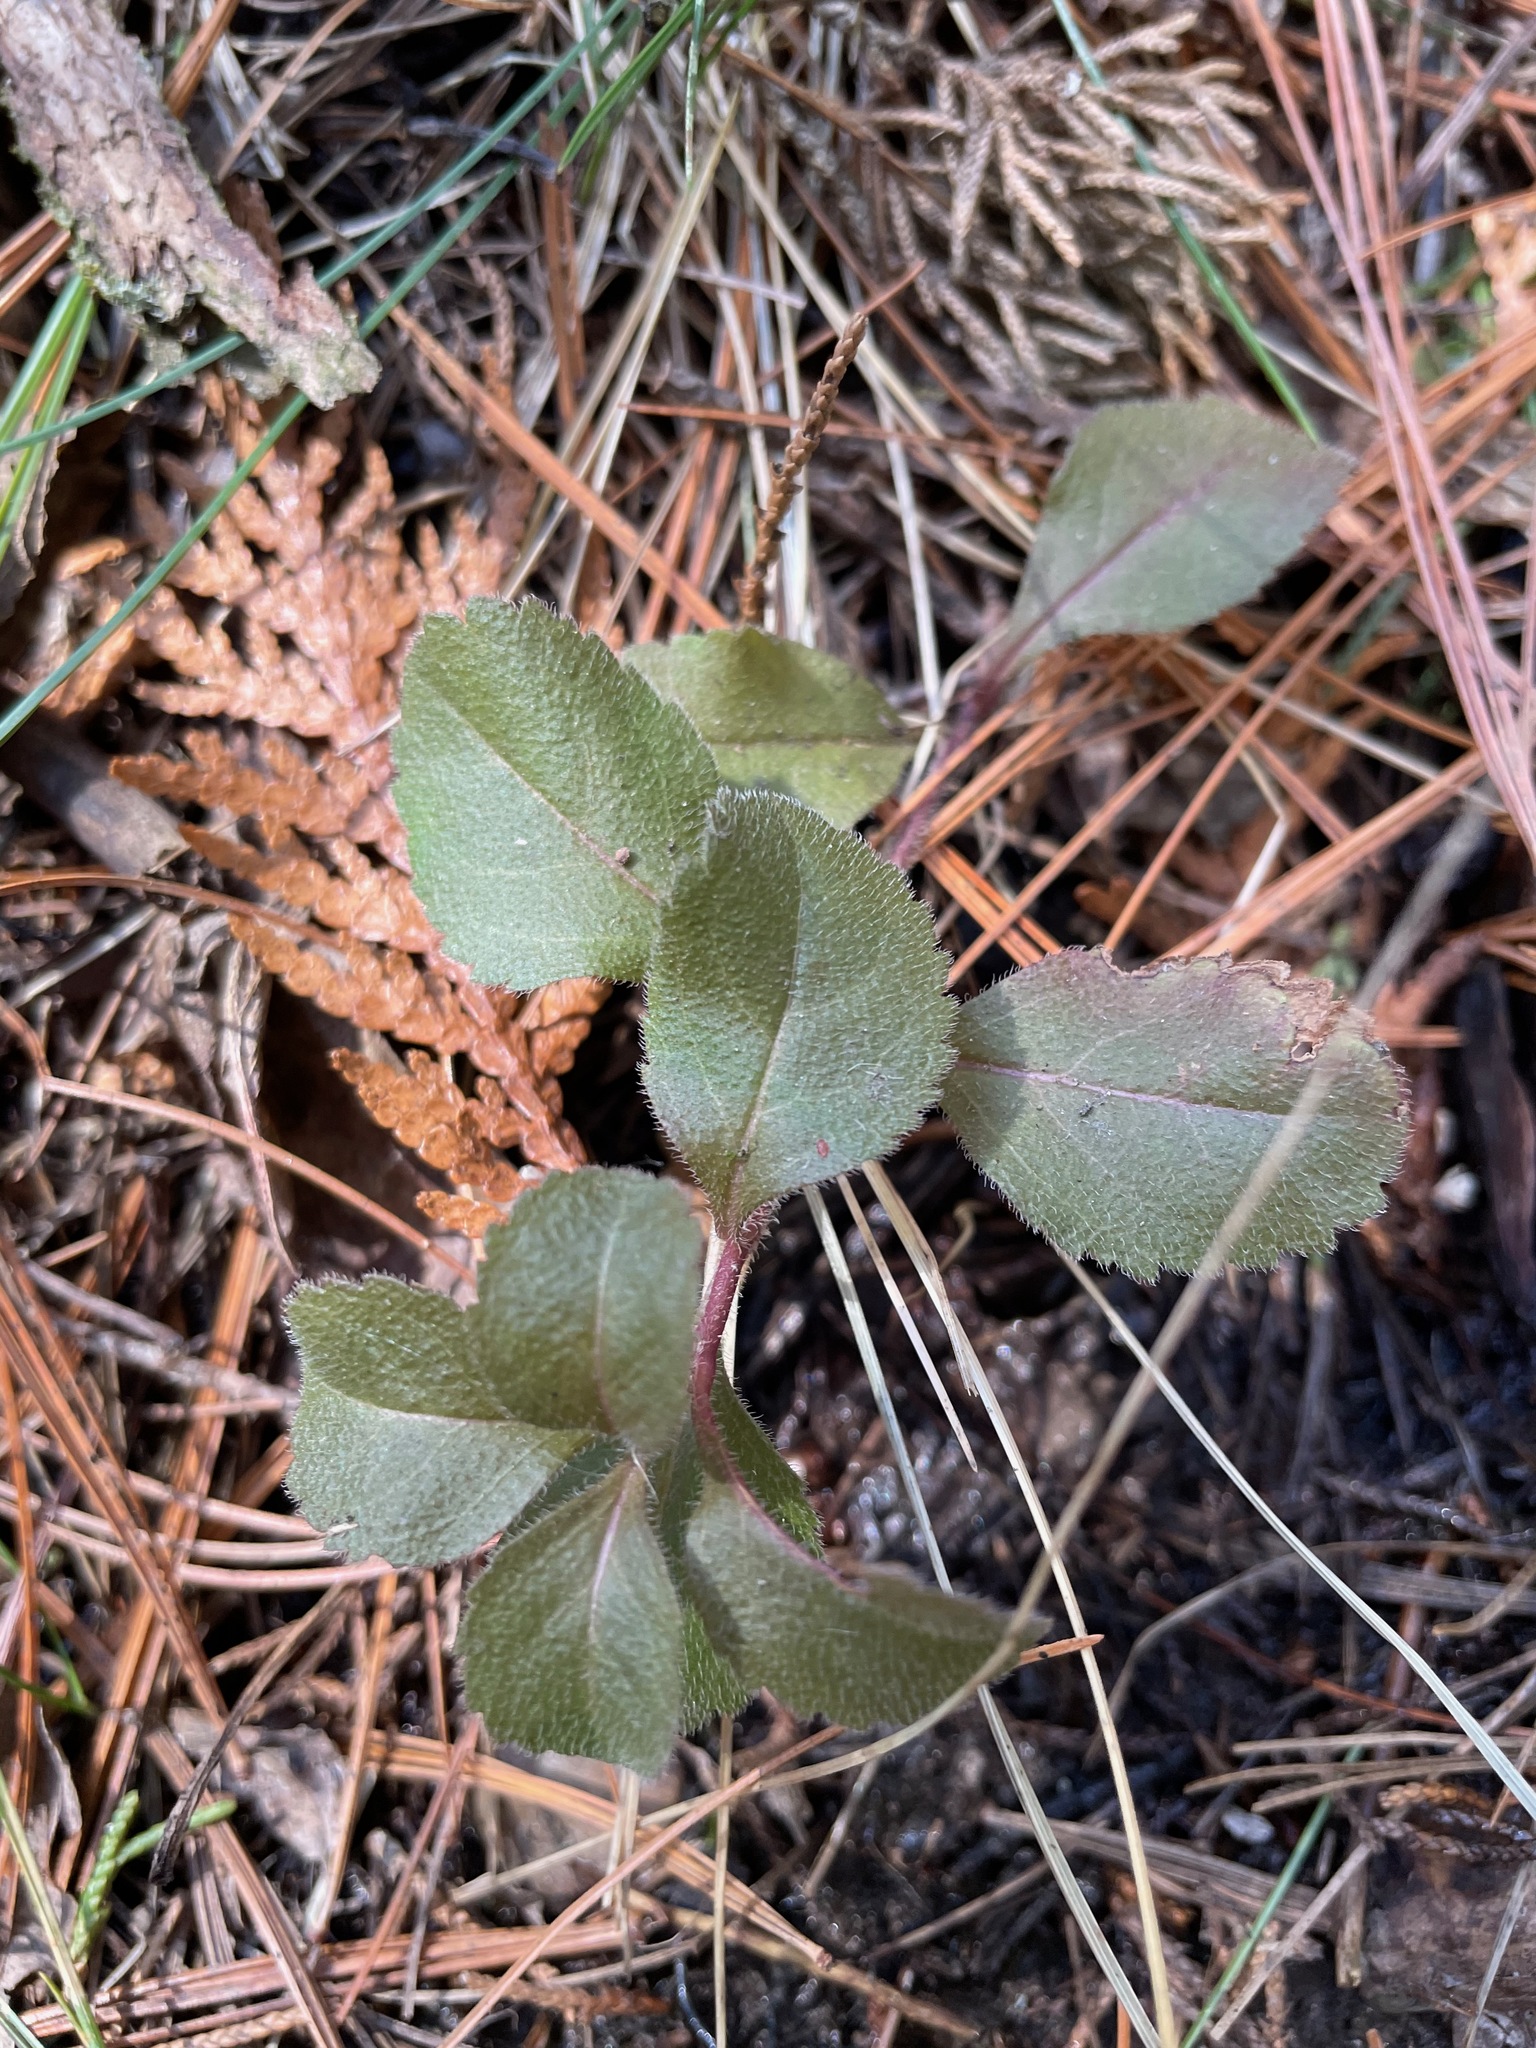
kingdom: Plantae
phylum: Tracheophyta
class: Magnoliopsida
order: Lamiales
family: Plantaginaceae
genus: Veronica
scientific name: Veronica officinalis
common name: Common speedwell
